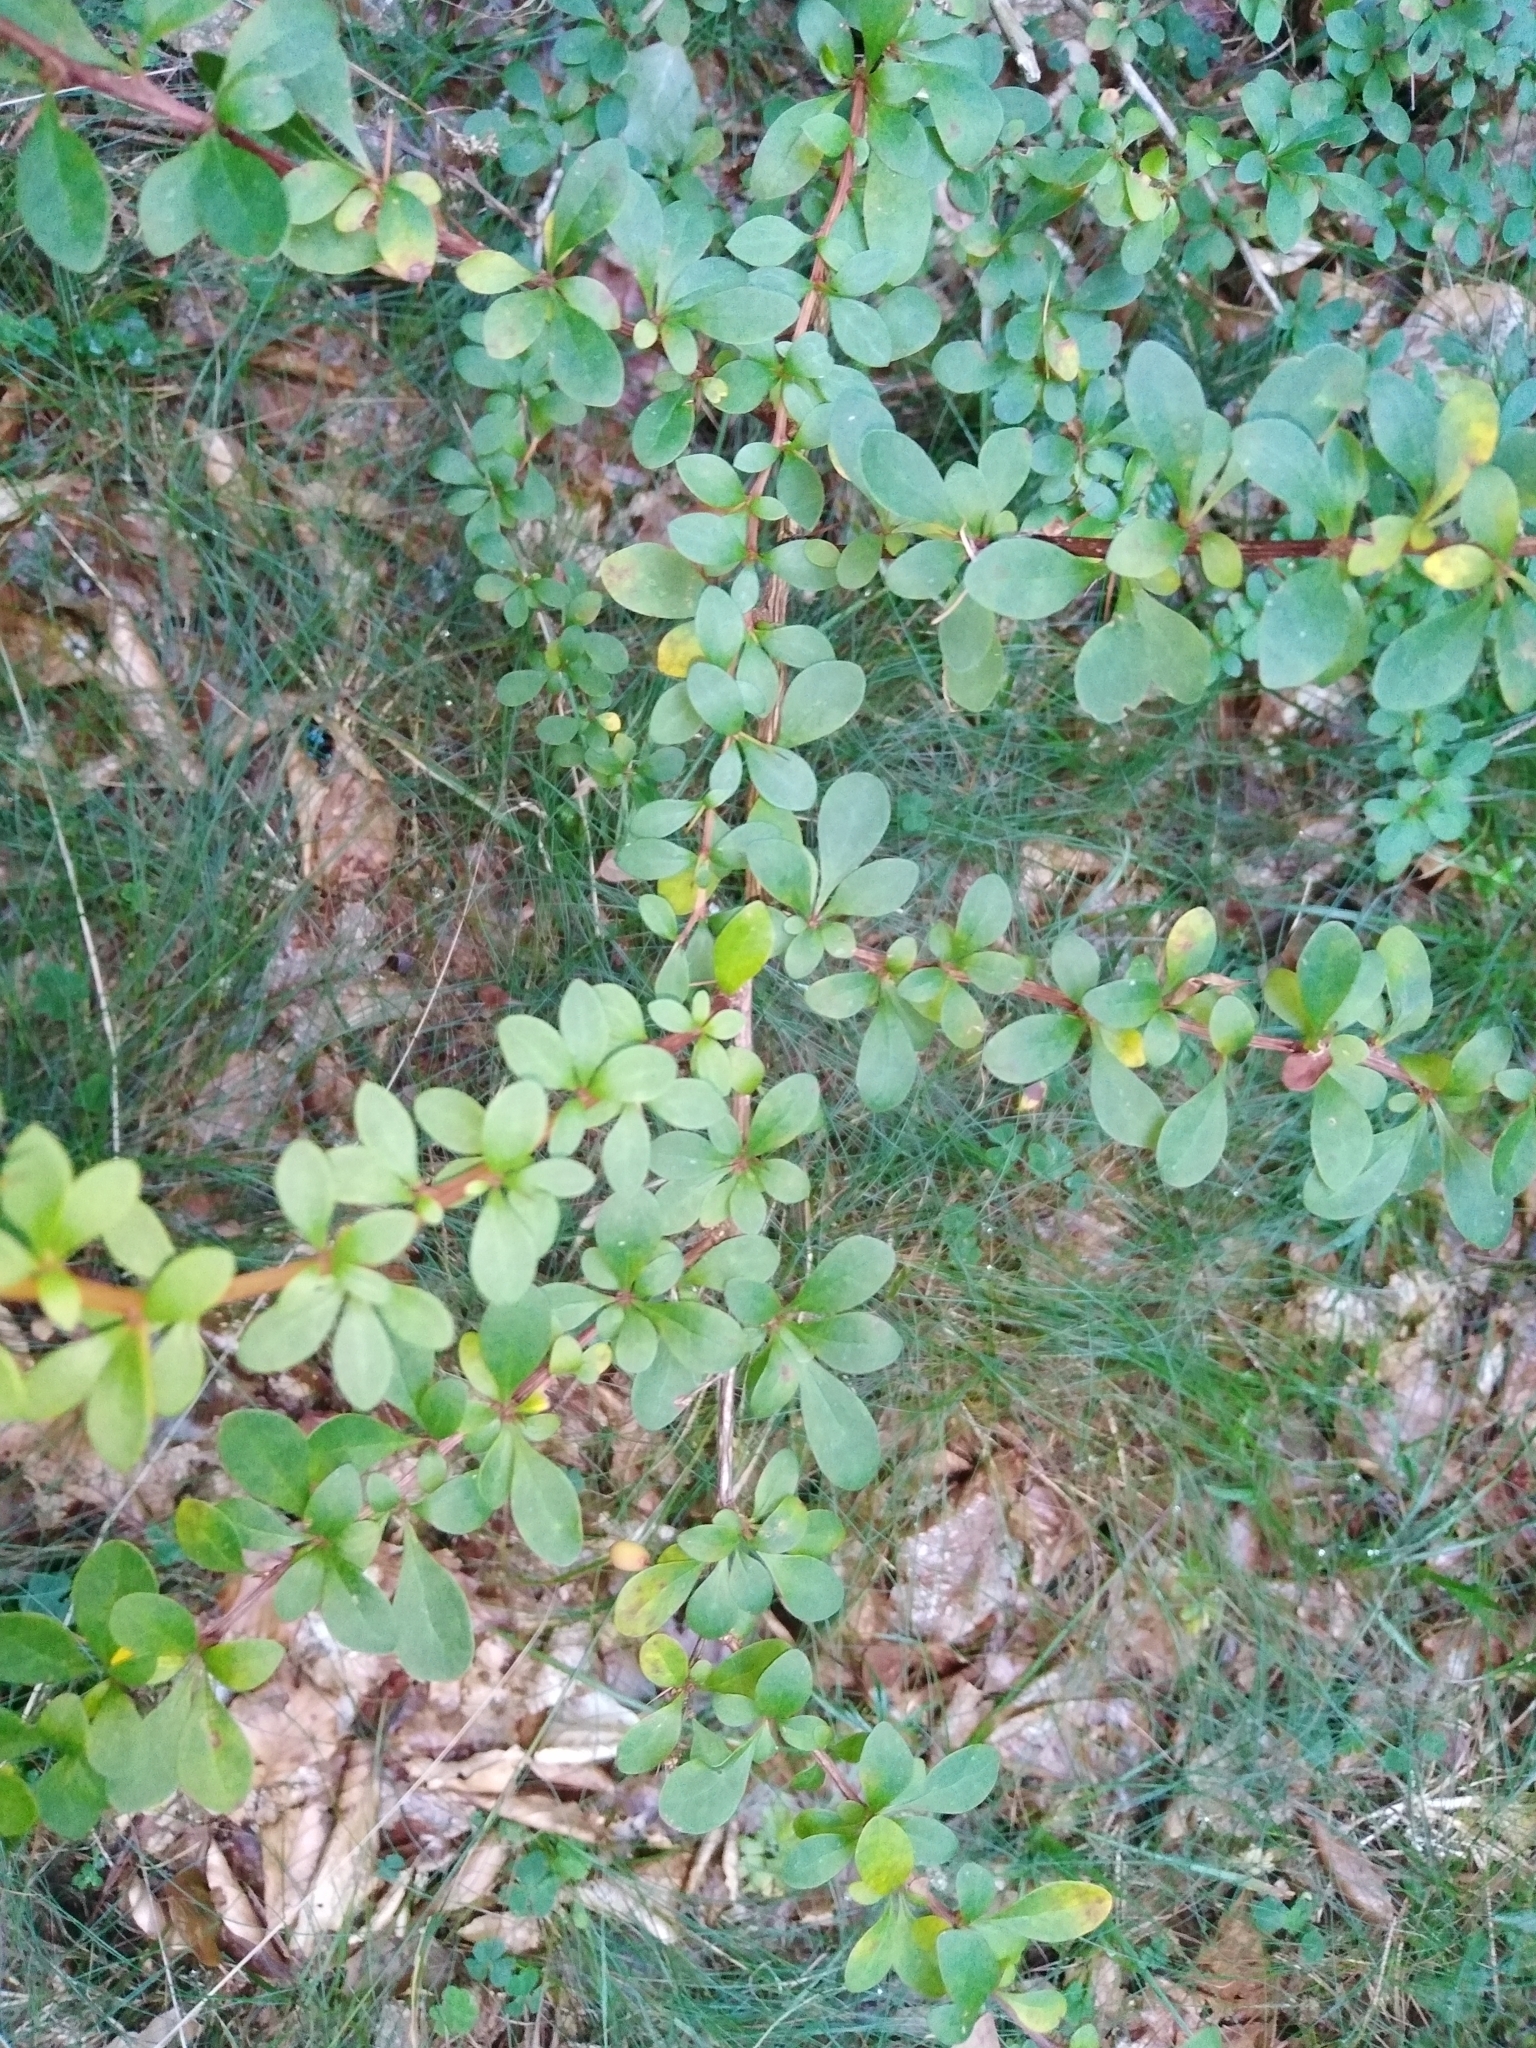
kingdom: Plantae
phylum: Tracheophyta
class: Magnoliopsida
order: Ranunculales
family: Berberidaceae
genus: Berberis
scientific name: Berberis thunbergii
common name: Japanese barberry
